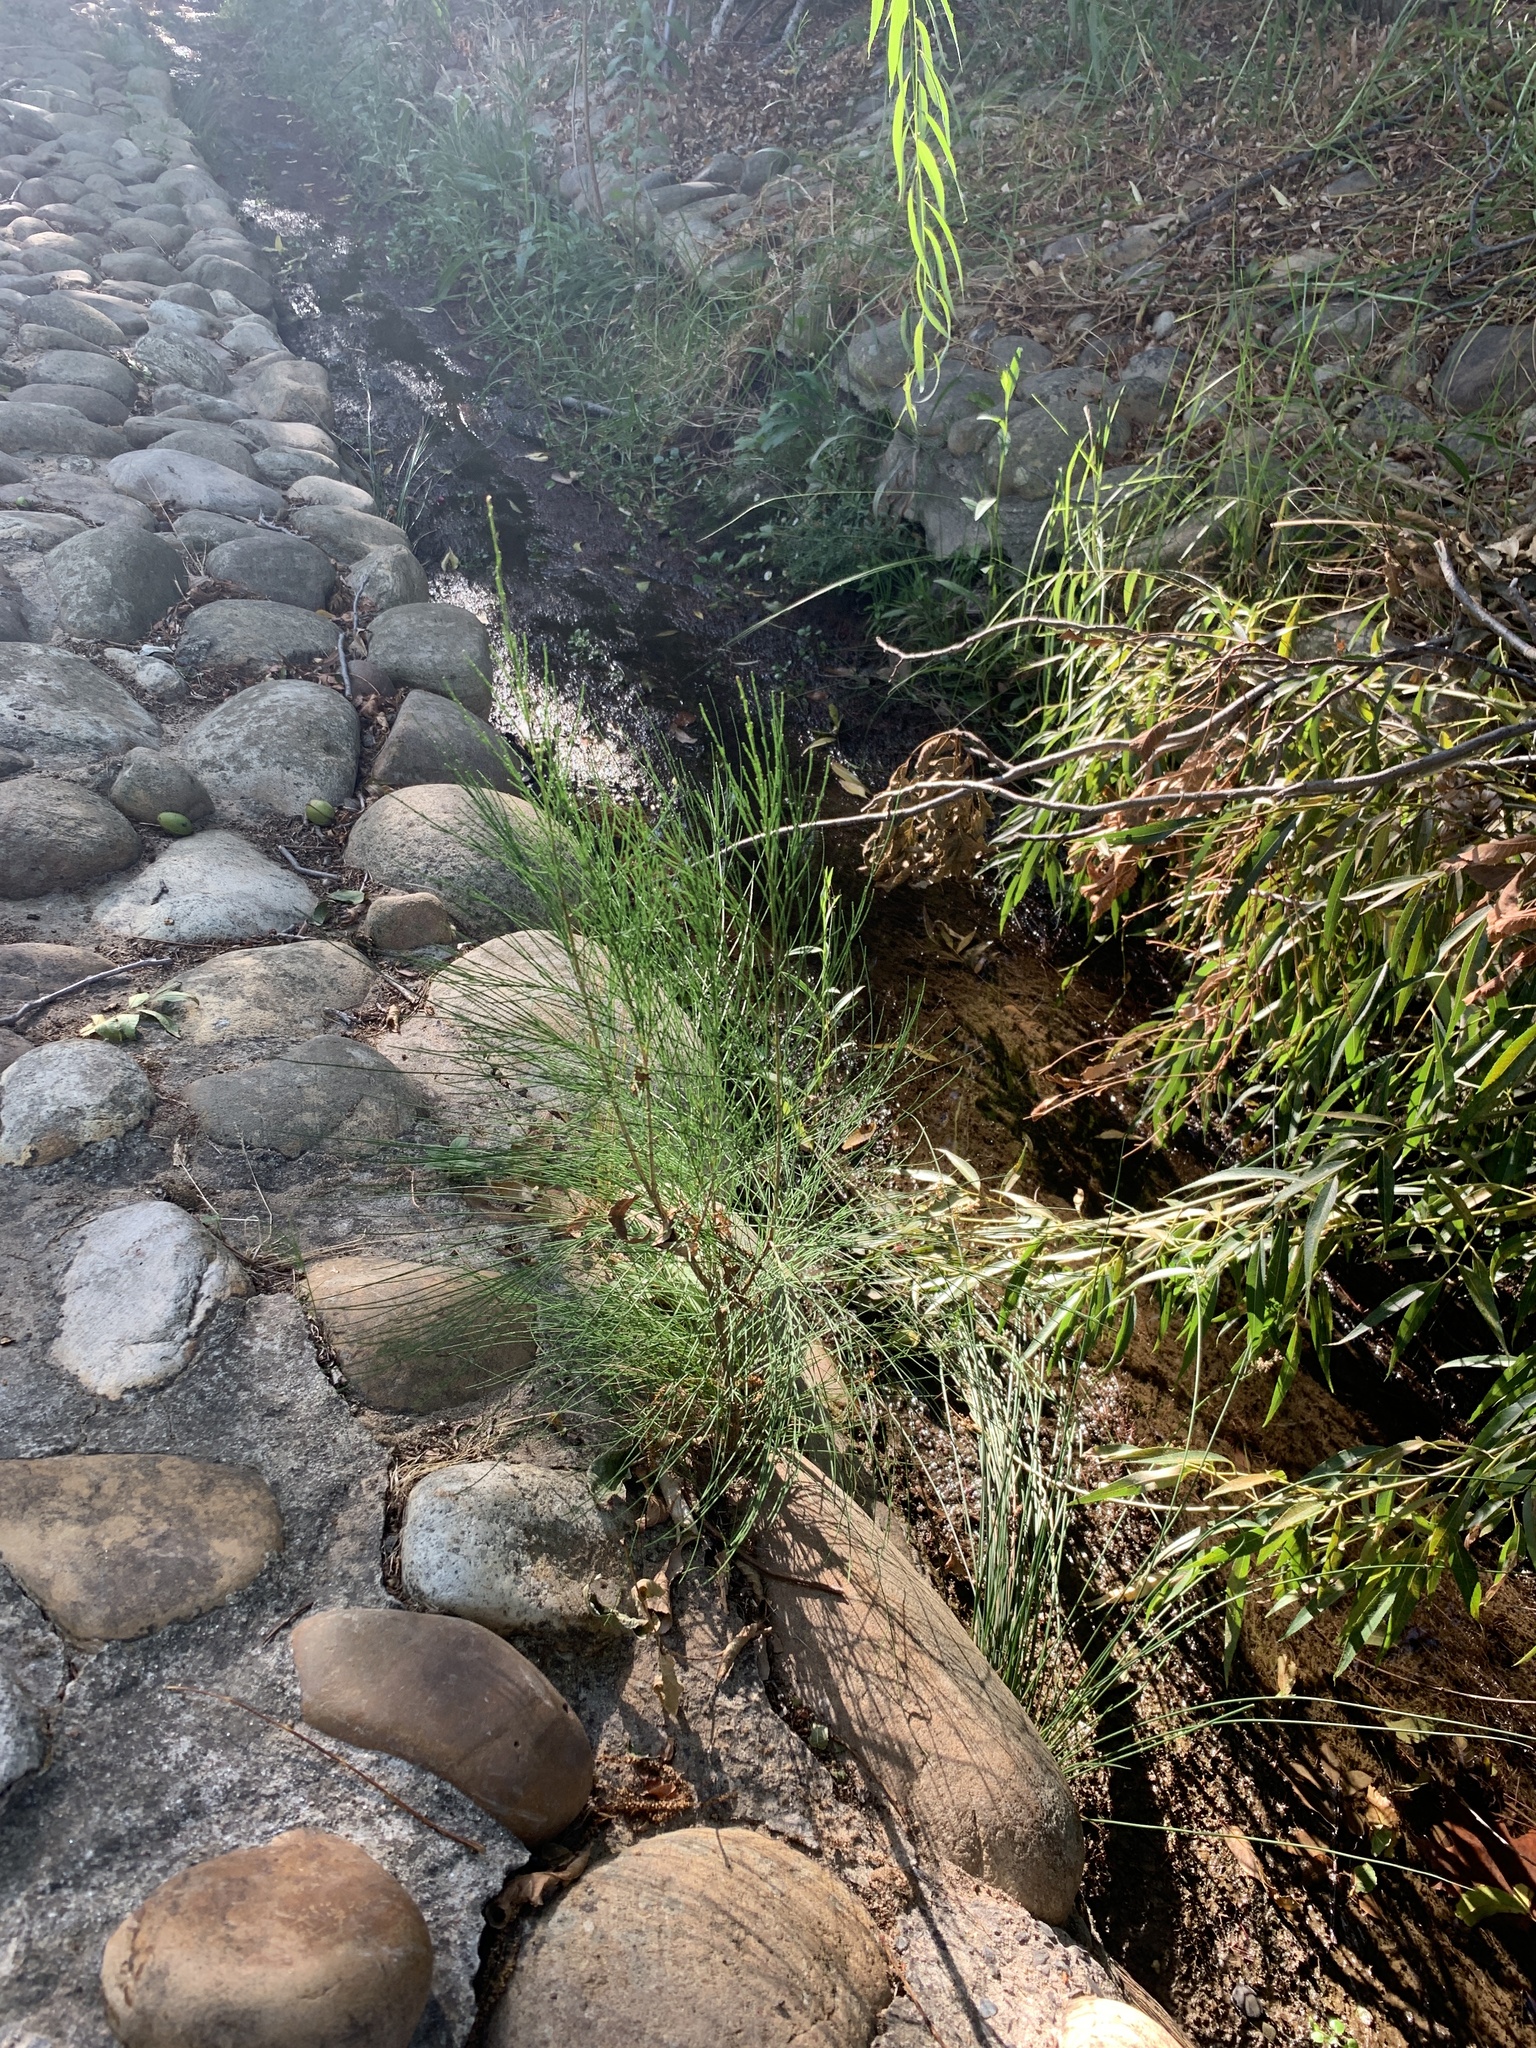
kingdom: Plantae
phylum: Tracheophyta
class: Magnoliopsida
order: Fagales
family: Casuarinaceae
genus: Casuarina
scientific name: Casuarina cunninghamiana
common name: River sheoak
